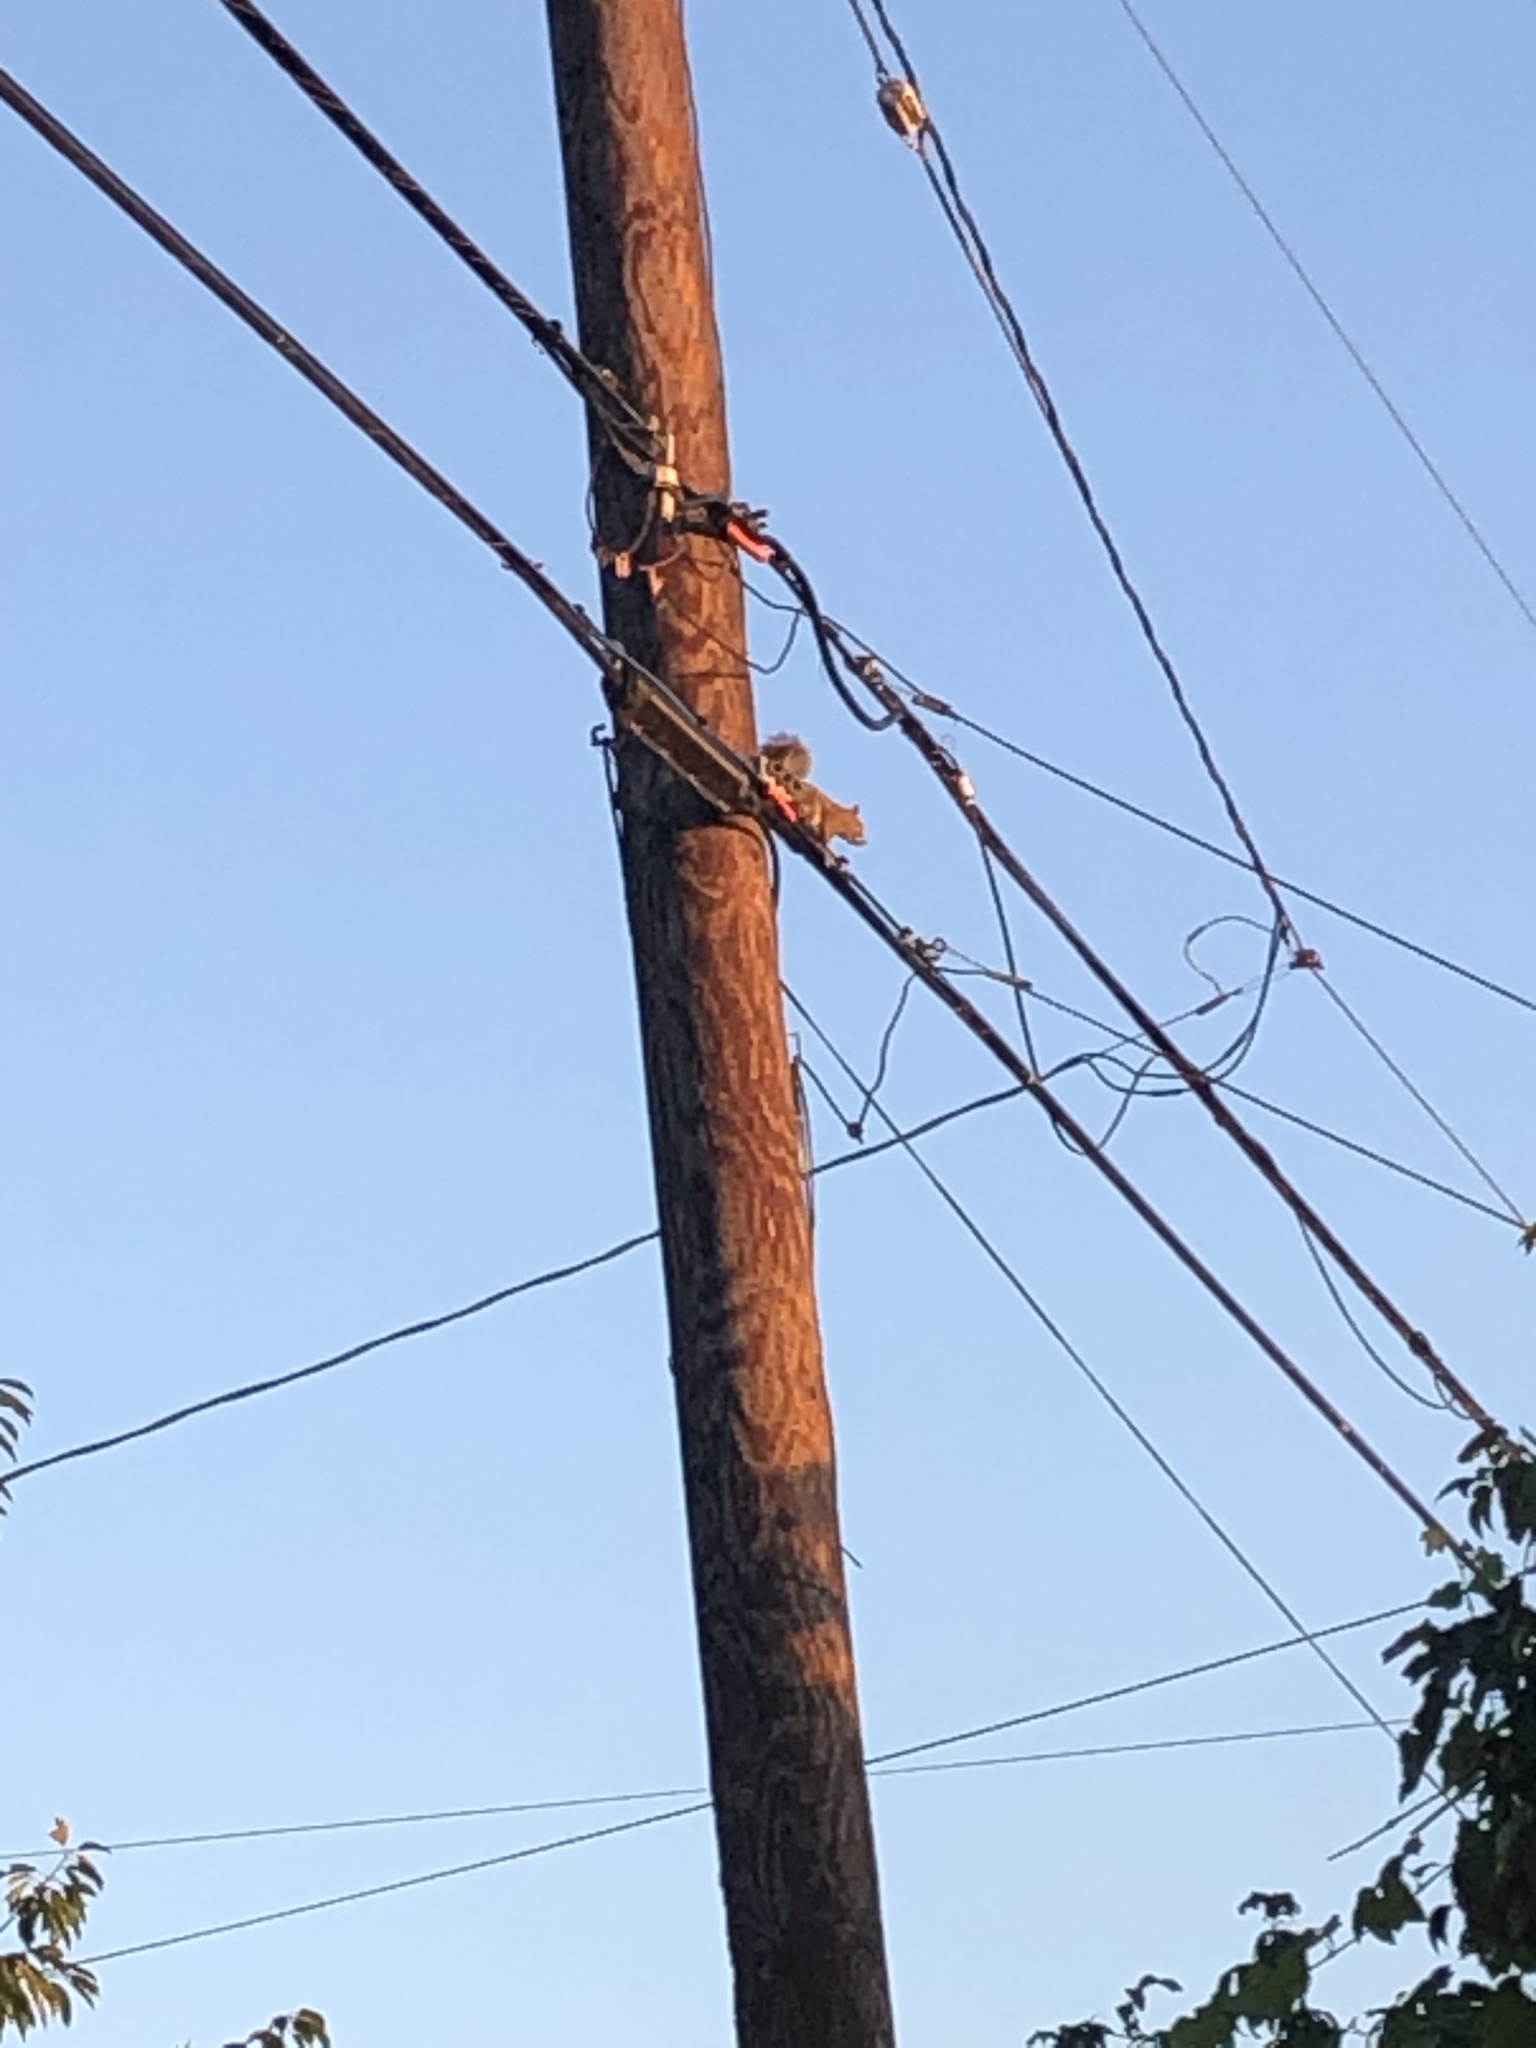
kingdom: Animalia
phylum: Chordata
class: Mammalia
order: Rodentia
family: Sciuridae
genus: Sciurus
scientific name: Sciurus carolinensis
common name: Eastern gray squirrel
